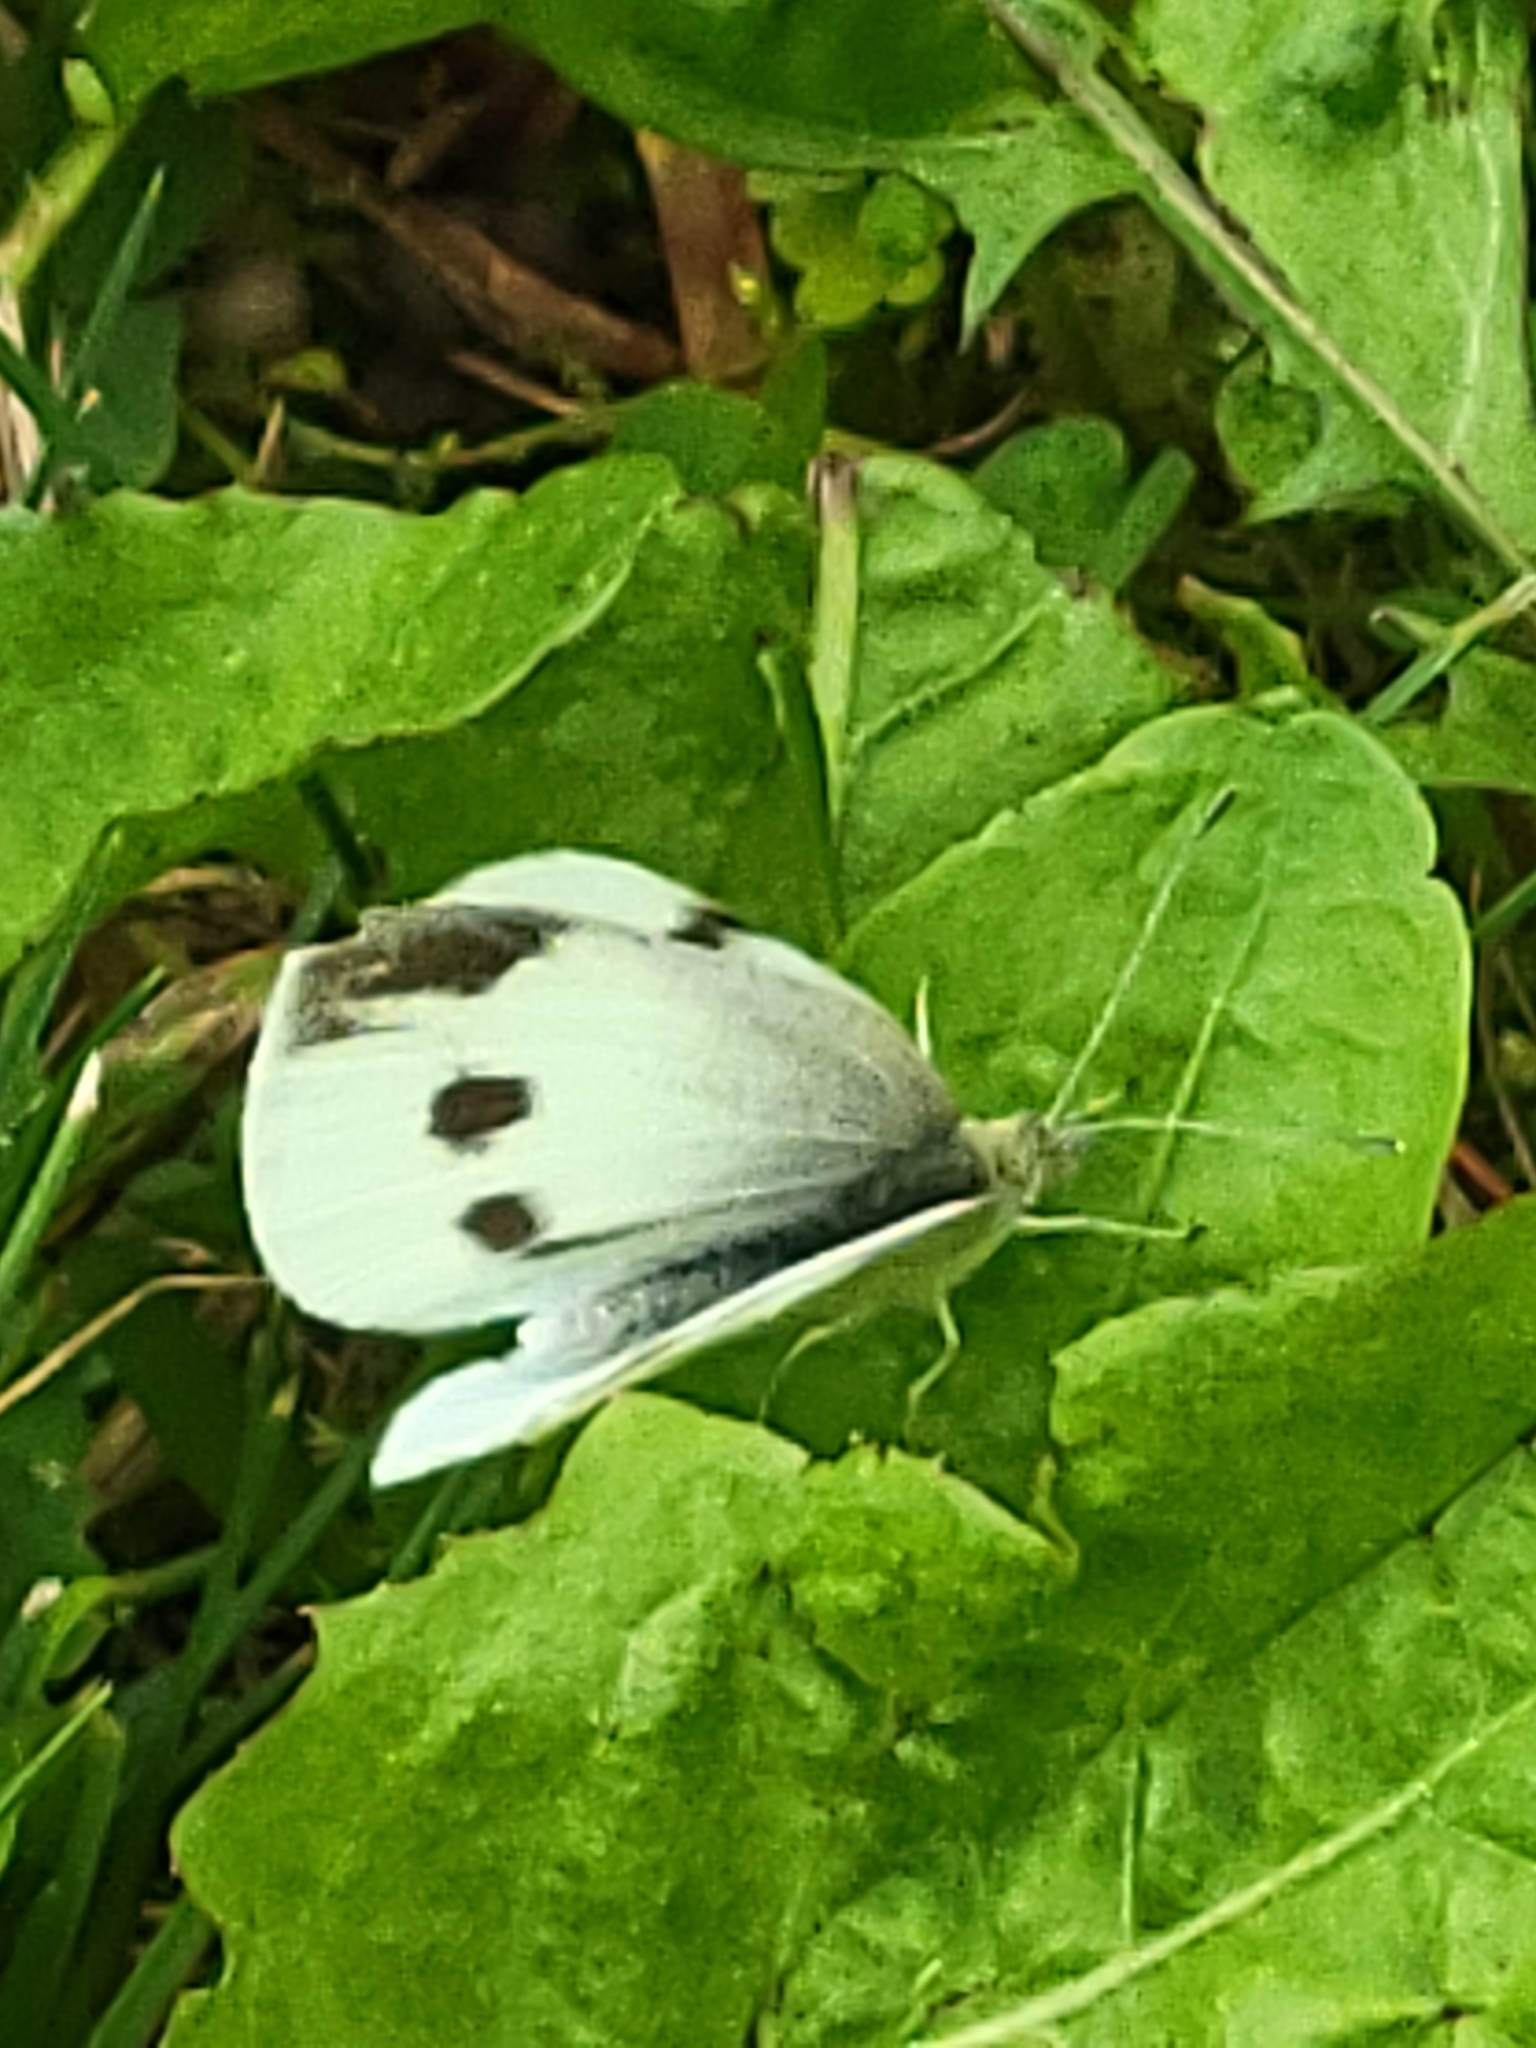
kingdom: Animalia
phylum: Arthropoda
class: Insecta
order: Lepidoptera
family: Pieridae
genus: Pieris
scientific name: Pieris rapae
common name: Small white
